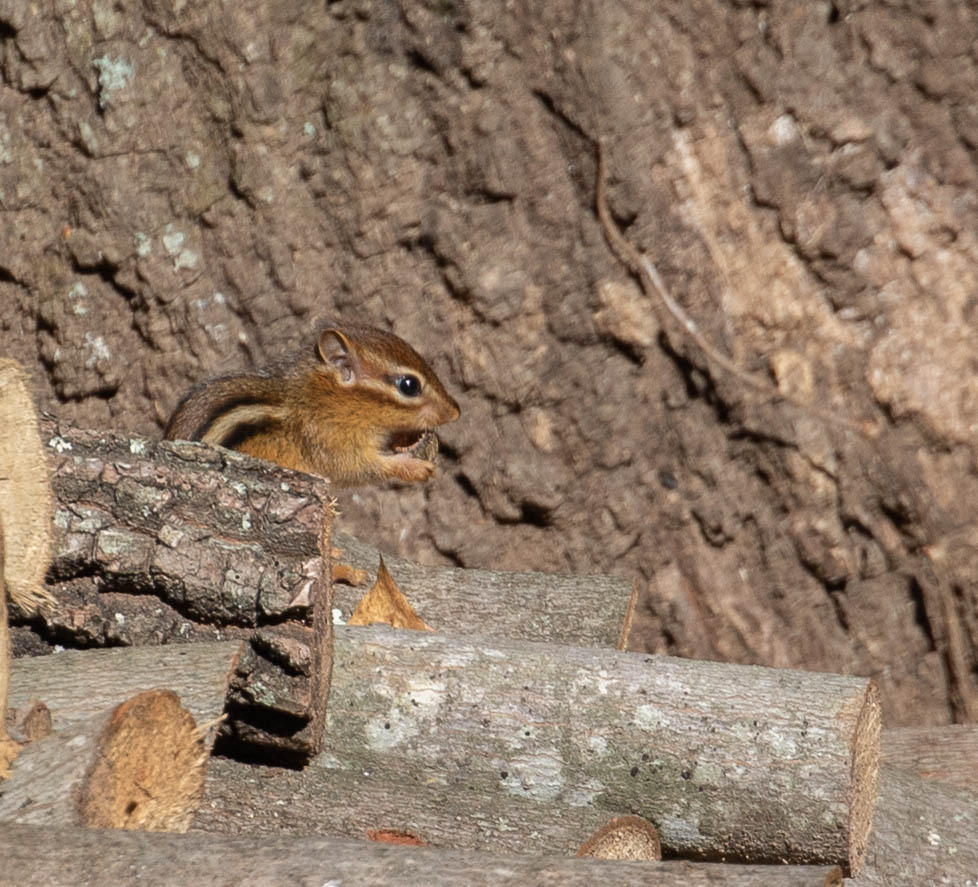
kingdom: Animalia
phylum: Chordata
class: Mammalia
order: Rodentia
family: Sciuridae
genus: Tamias
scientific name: Tamias striatus
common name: Eastern chipmunk
